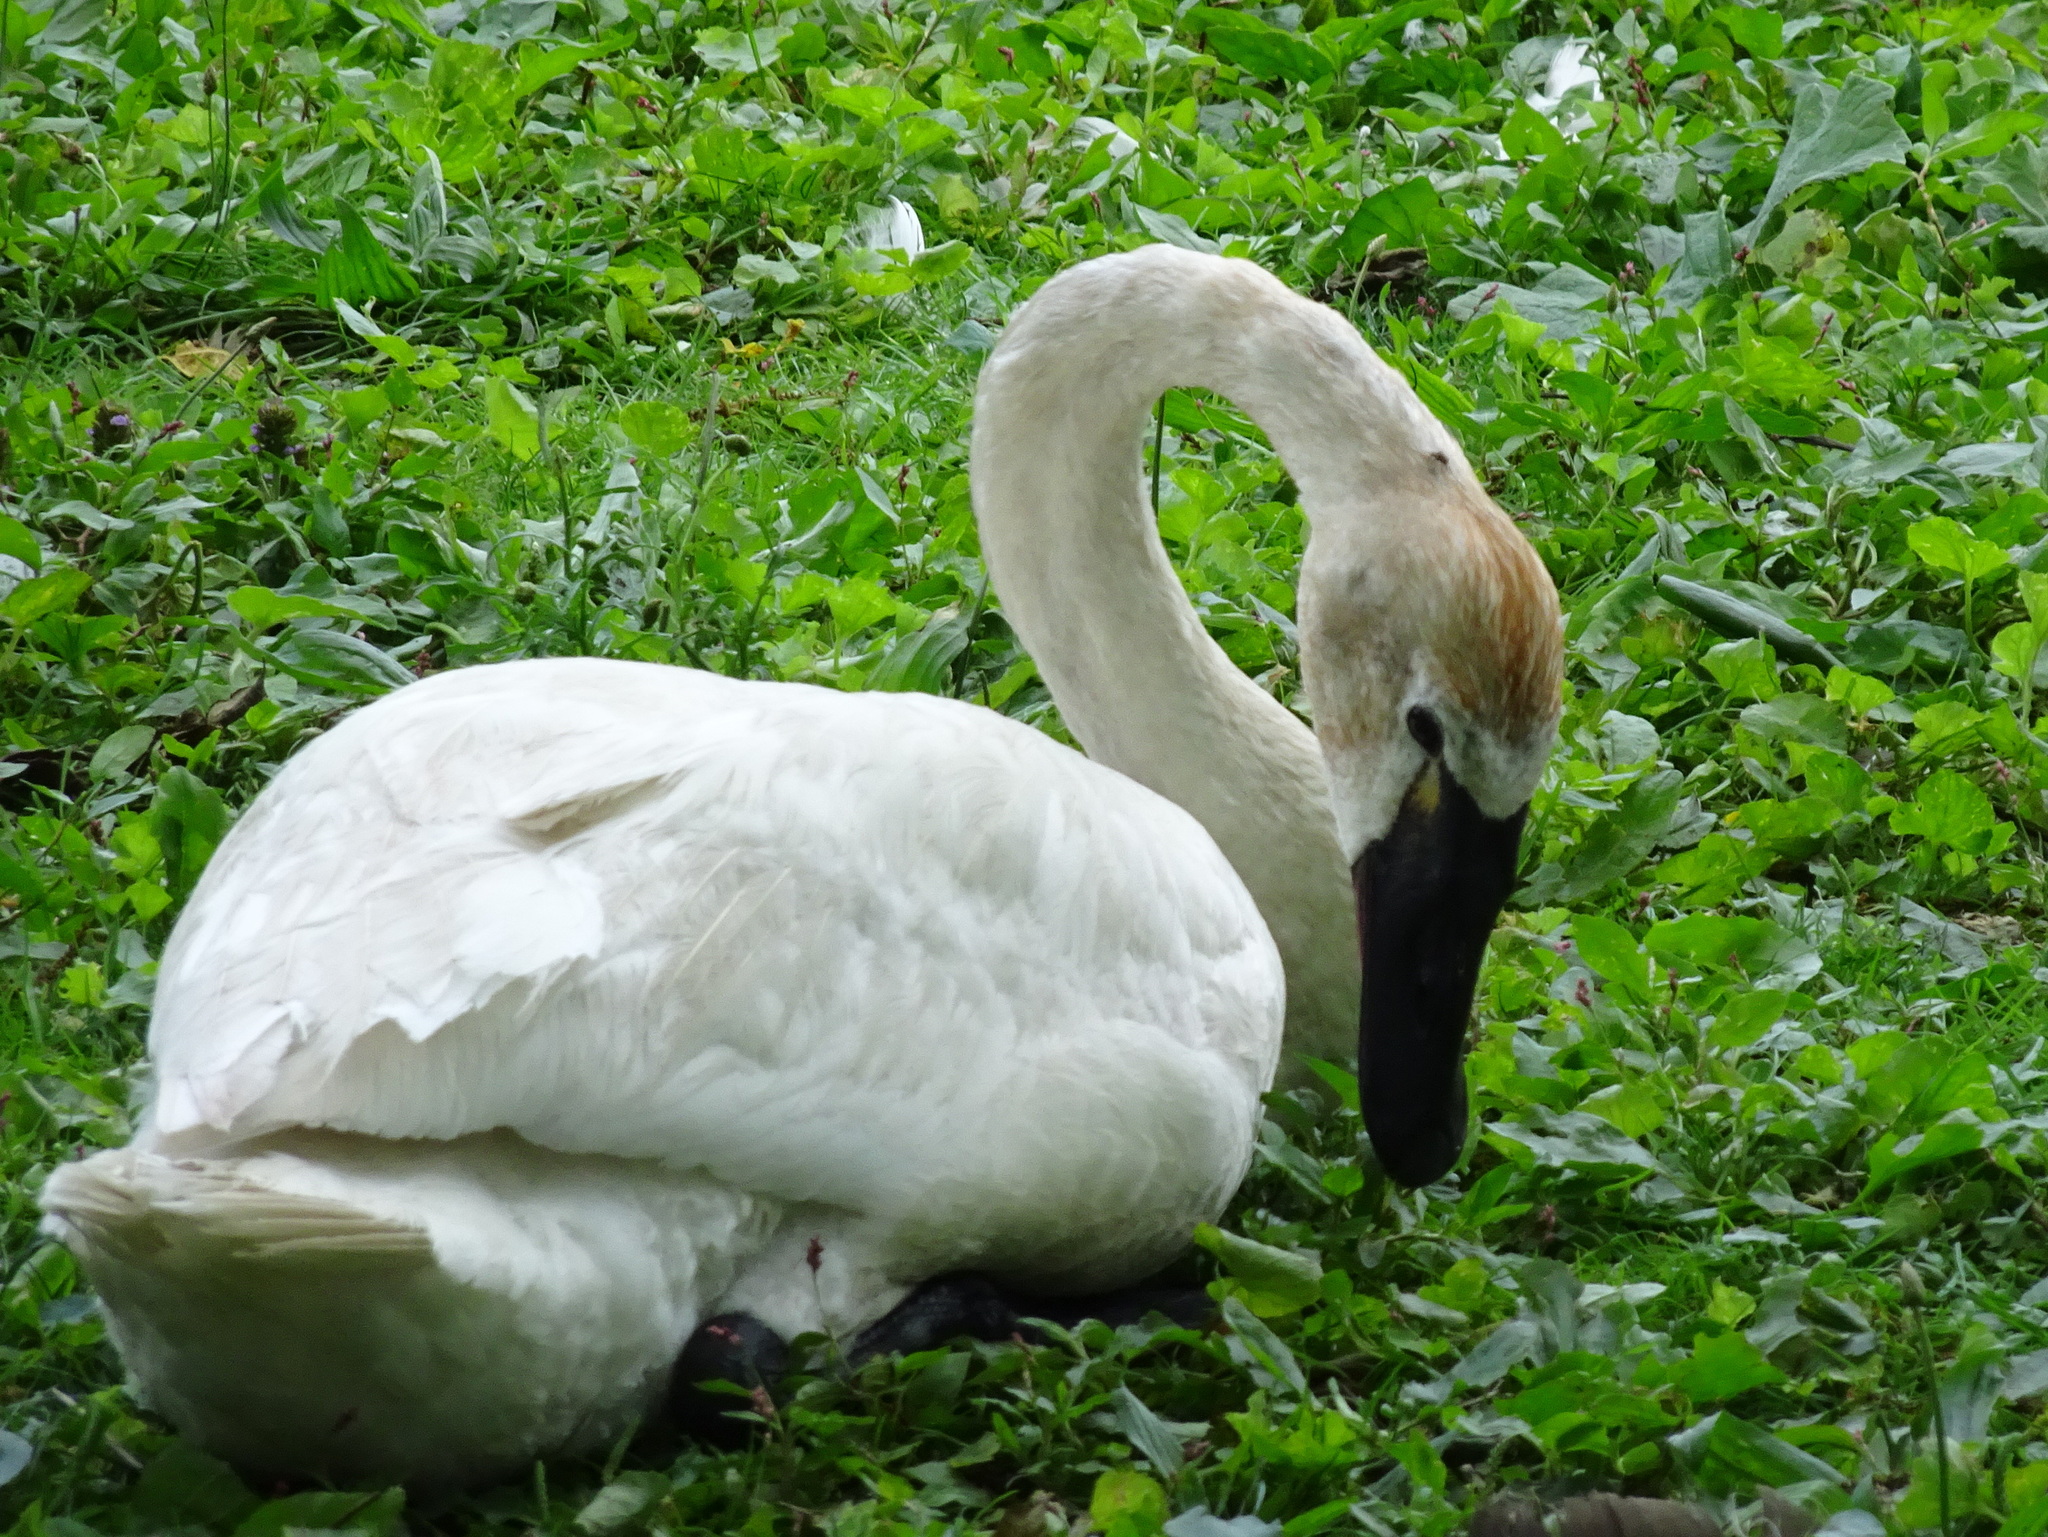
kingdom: Animalia
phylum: Chordata
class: Aves
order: Anseriformes
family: Anatidae
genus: Cygnus
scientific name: Cygnus columbianus
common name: Tundra swan
